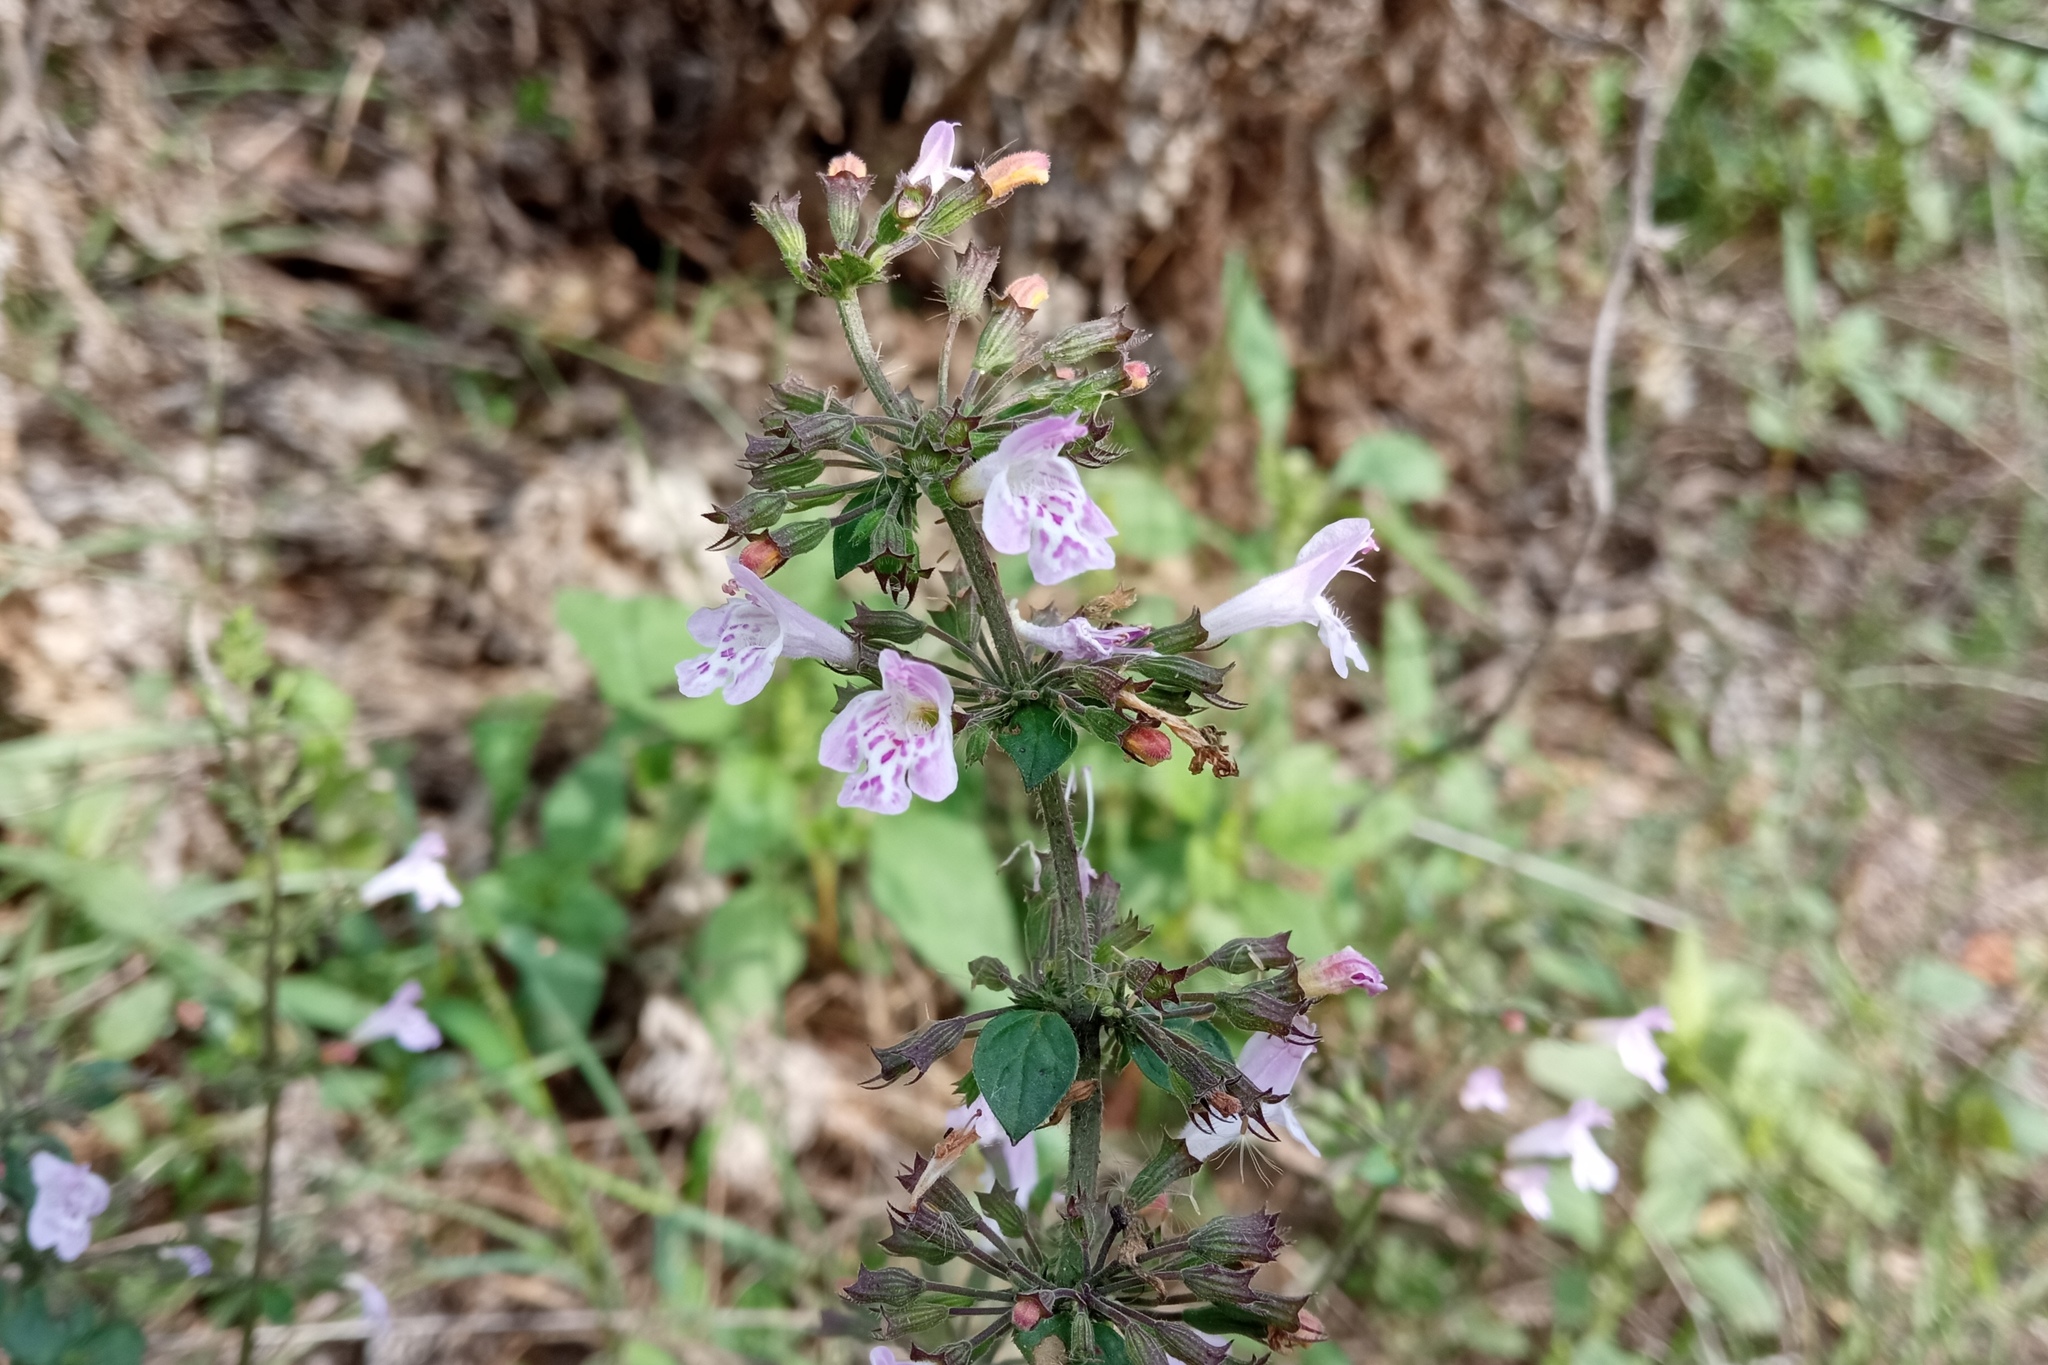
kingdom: Plantae
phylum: Tracheophyta
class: Magnoliopsida
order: Lamiales
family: Lamiaceae
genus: Clinopodium
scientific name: Clinopodium menthifolium
